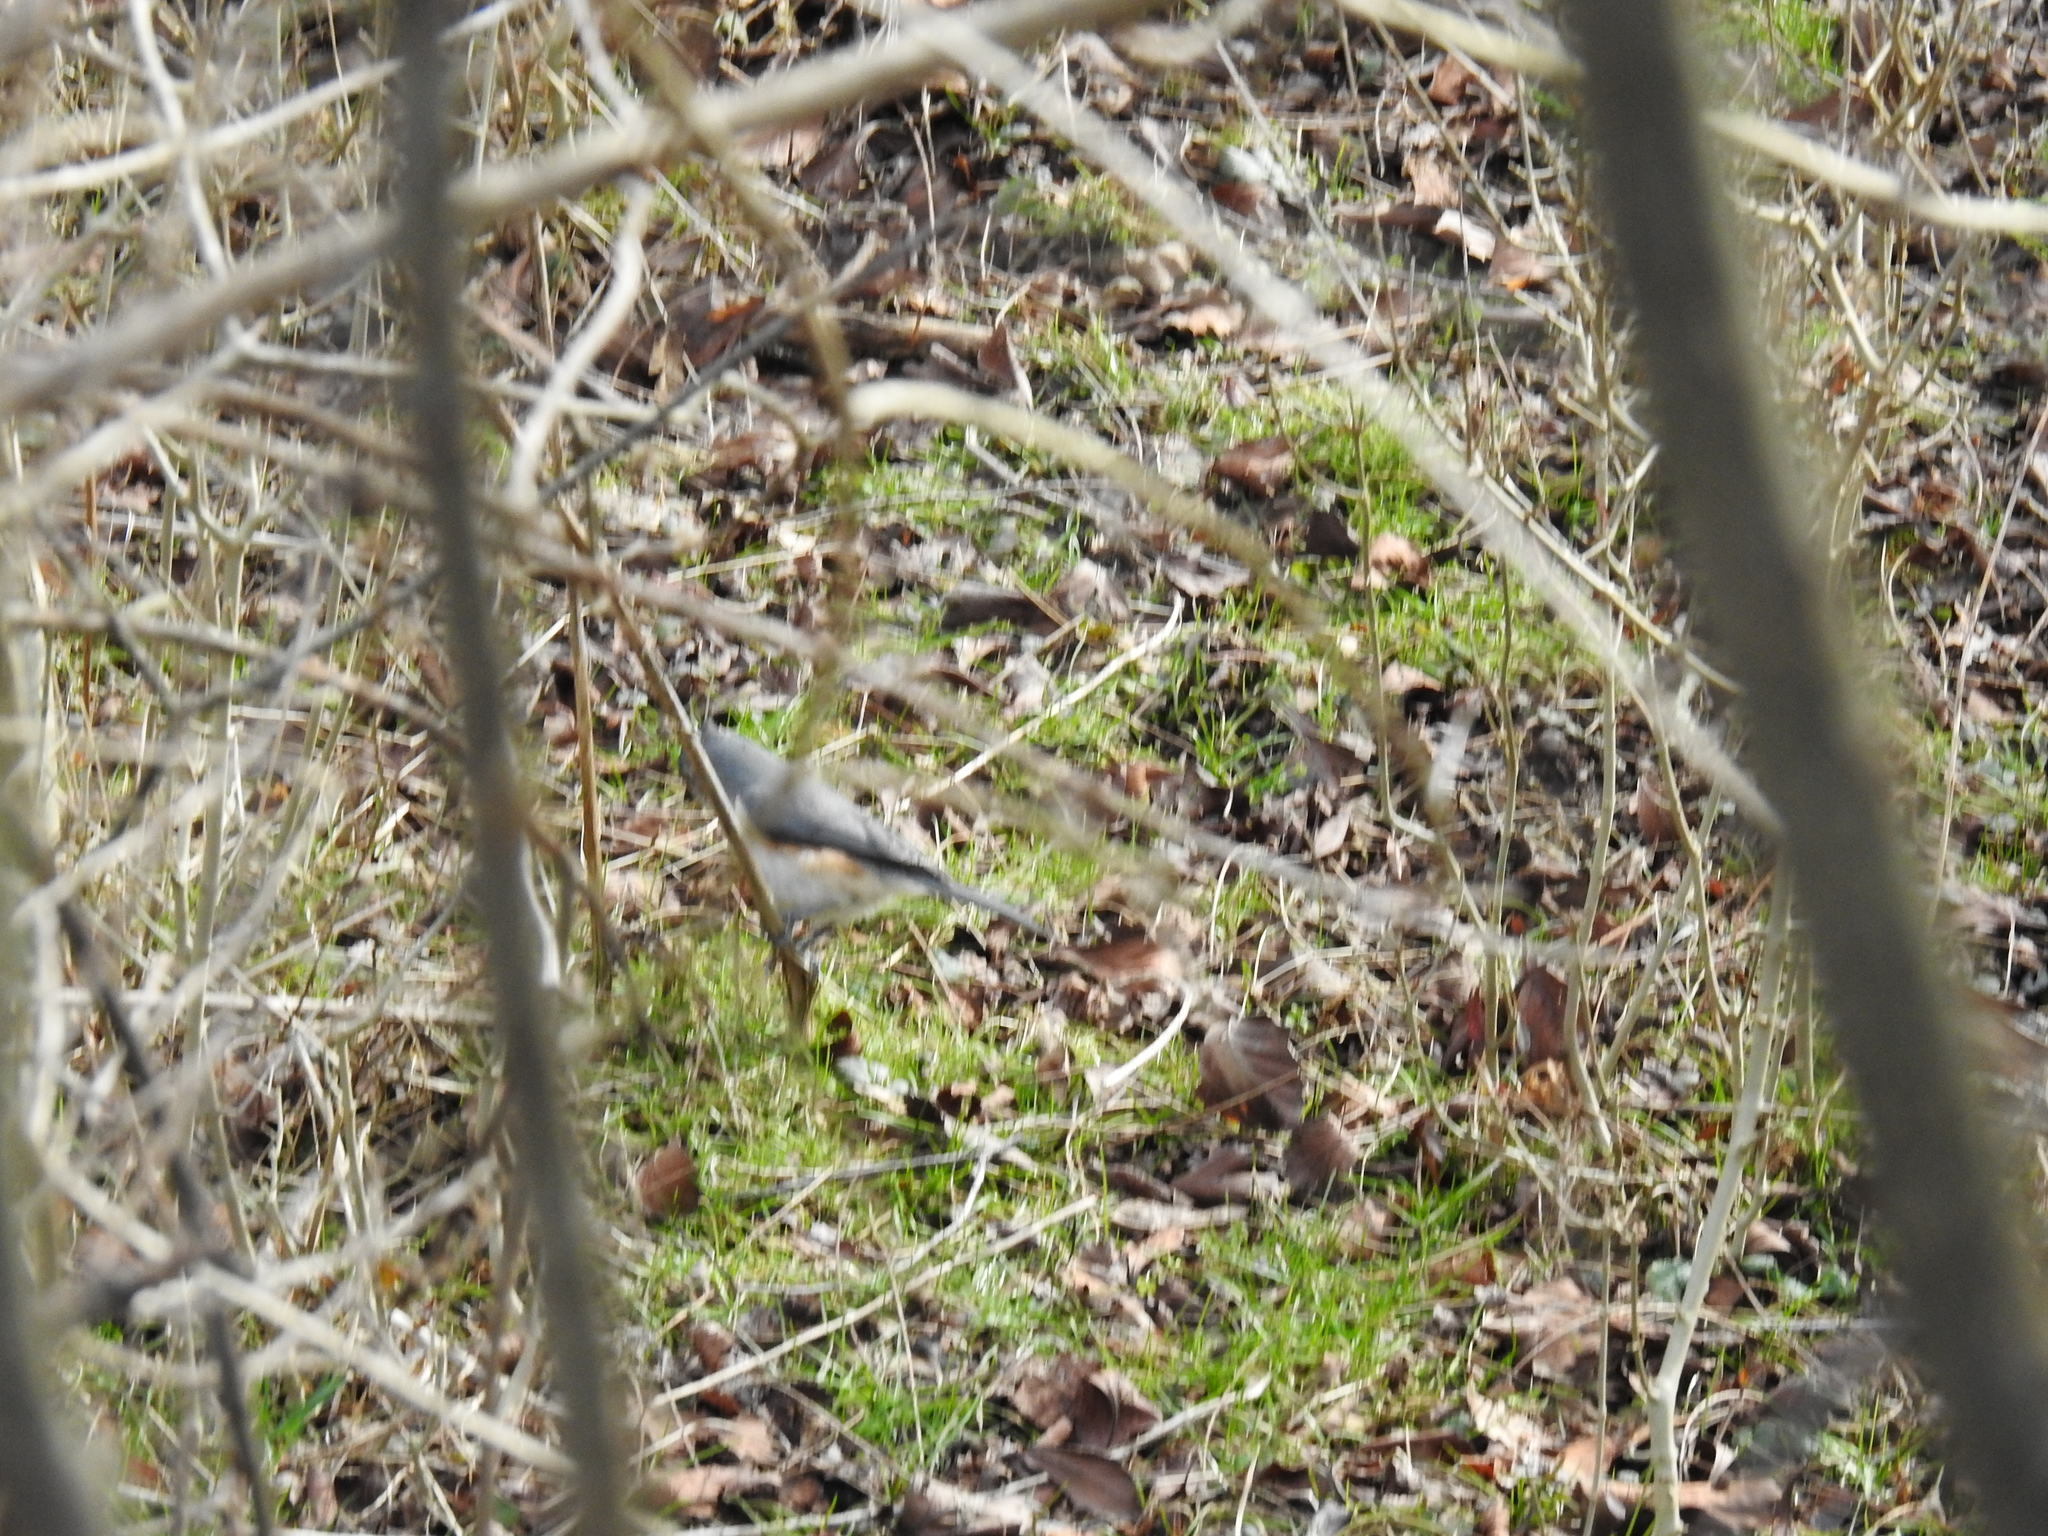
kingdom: Animalia
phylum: Chordata
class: Aves
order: Passeriformes
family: Paridae
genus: Baeolophus
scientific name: Baeolophus bicolor
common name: Tufted titmouse
